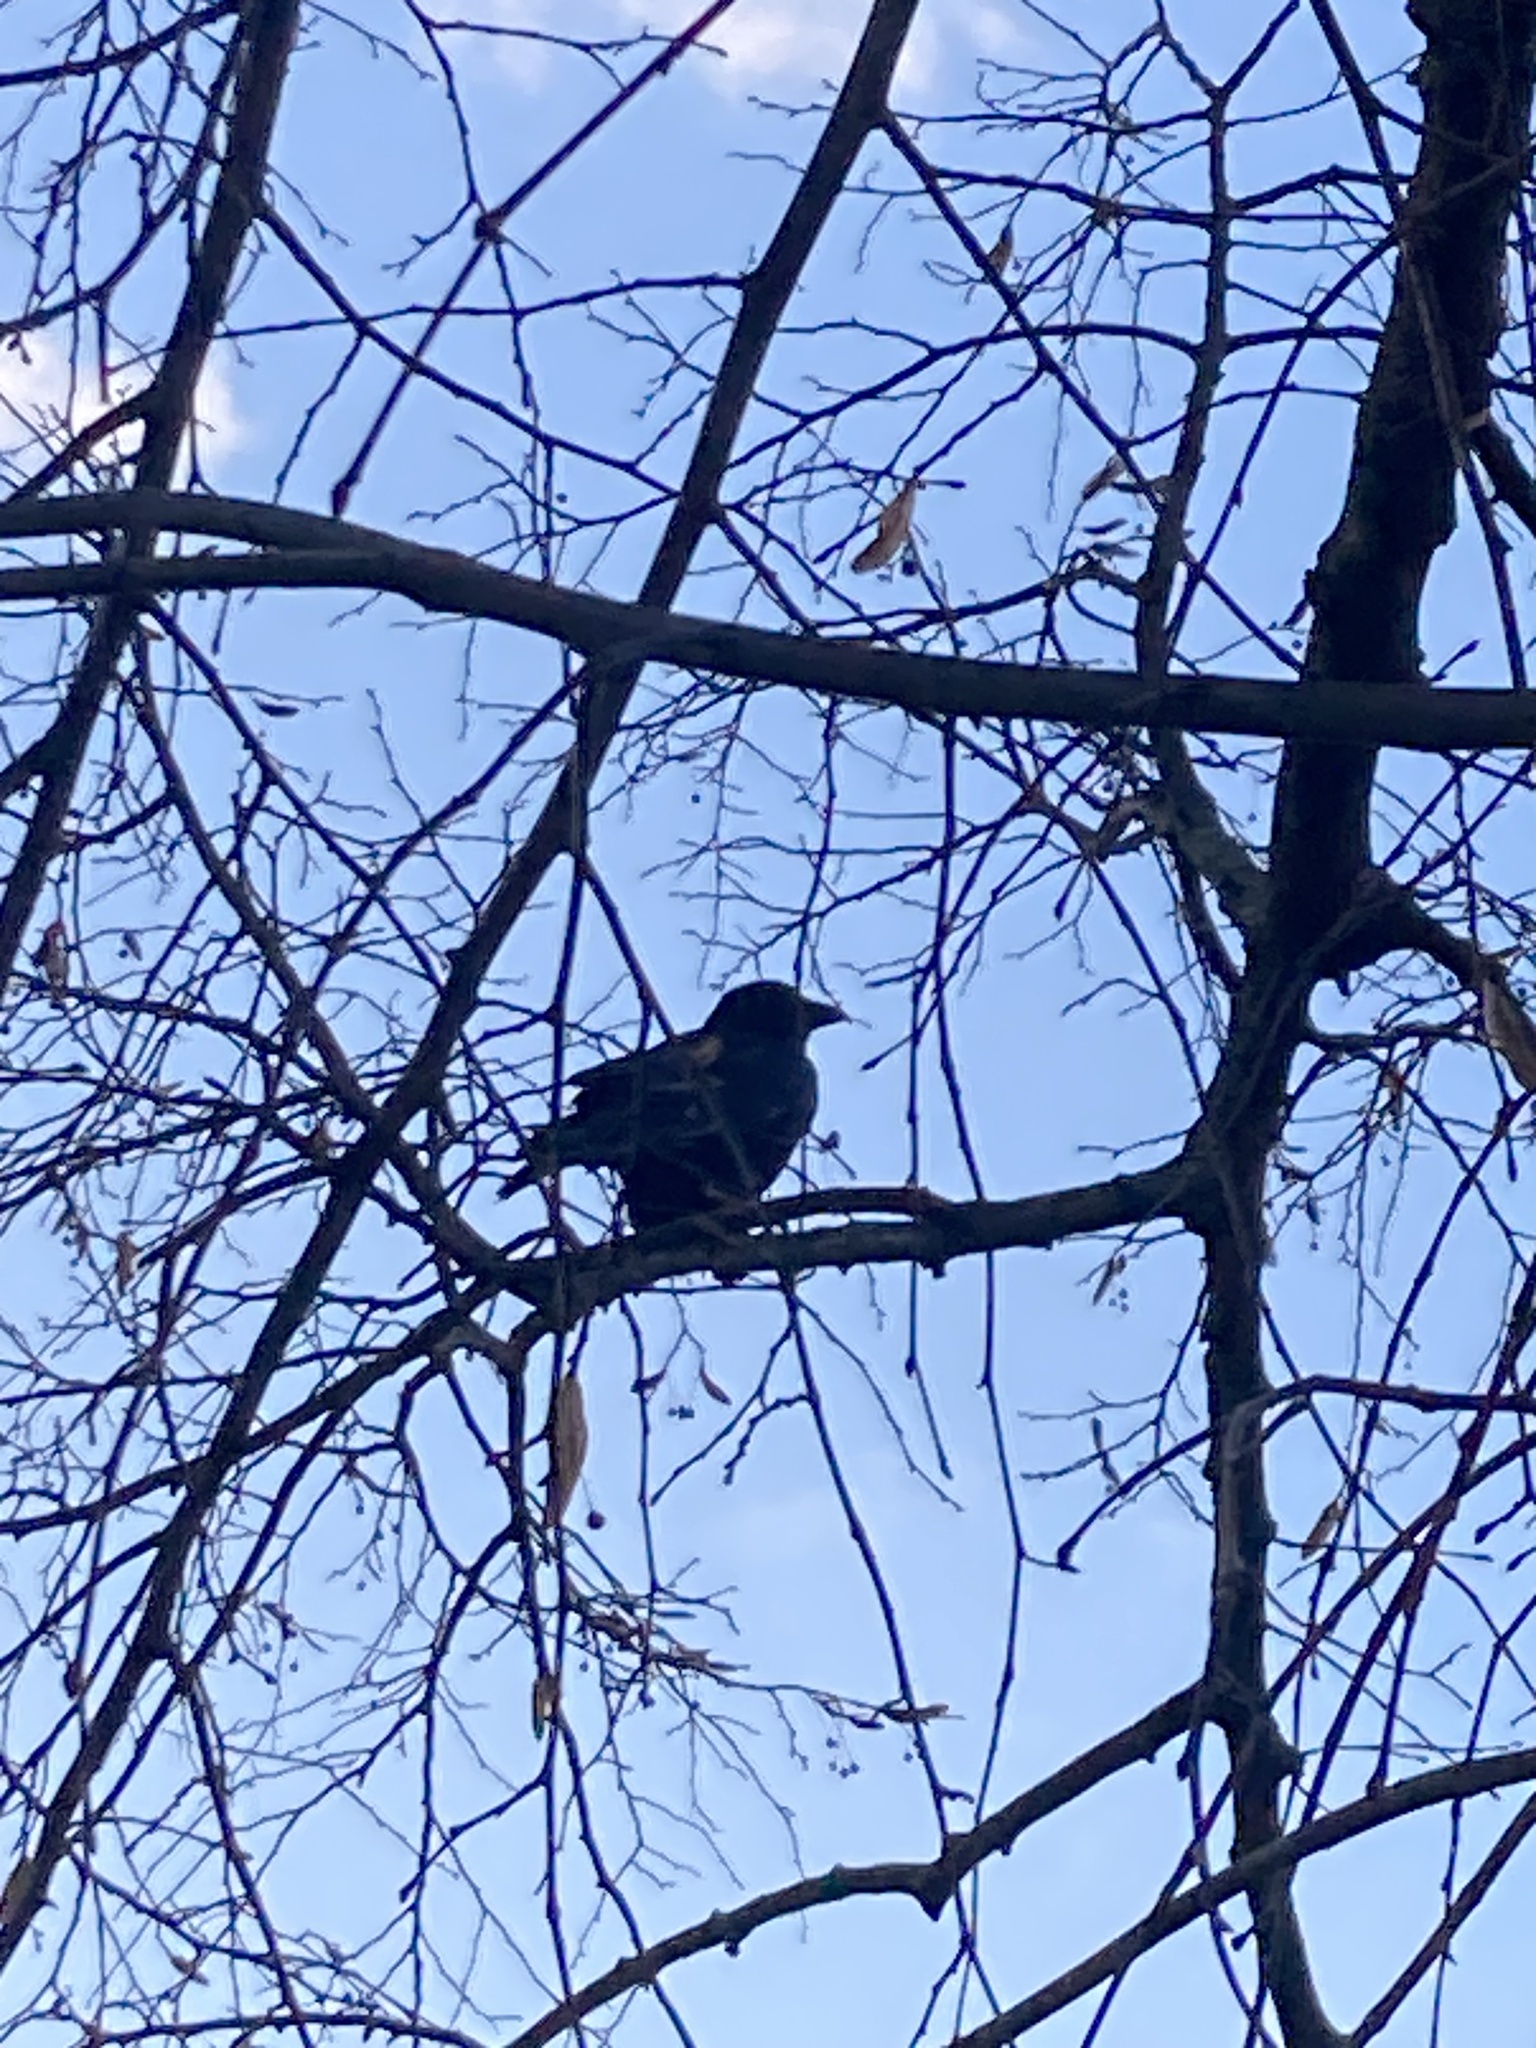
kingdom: Animalia
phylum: Chordata
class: Aves
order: Passeriformes
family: Corvidae
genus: Corvus
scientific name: Corvus corone
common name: Carrion crow
